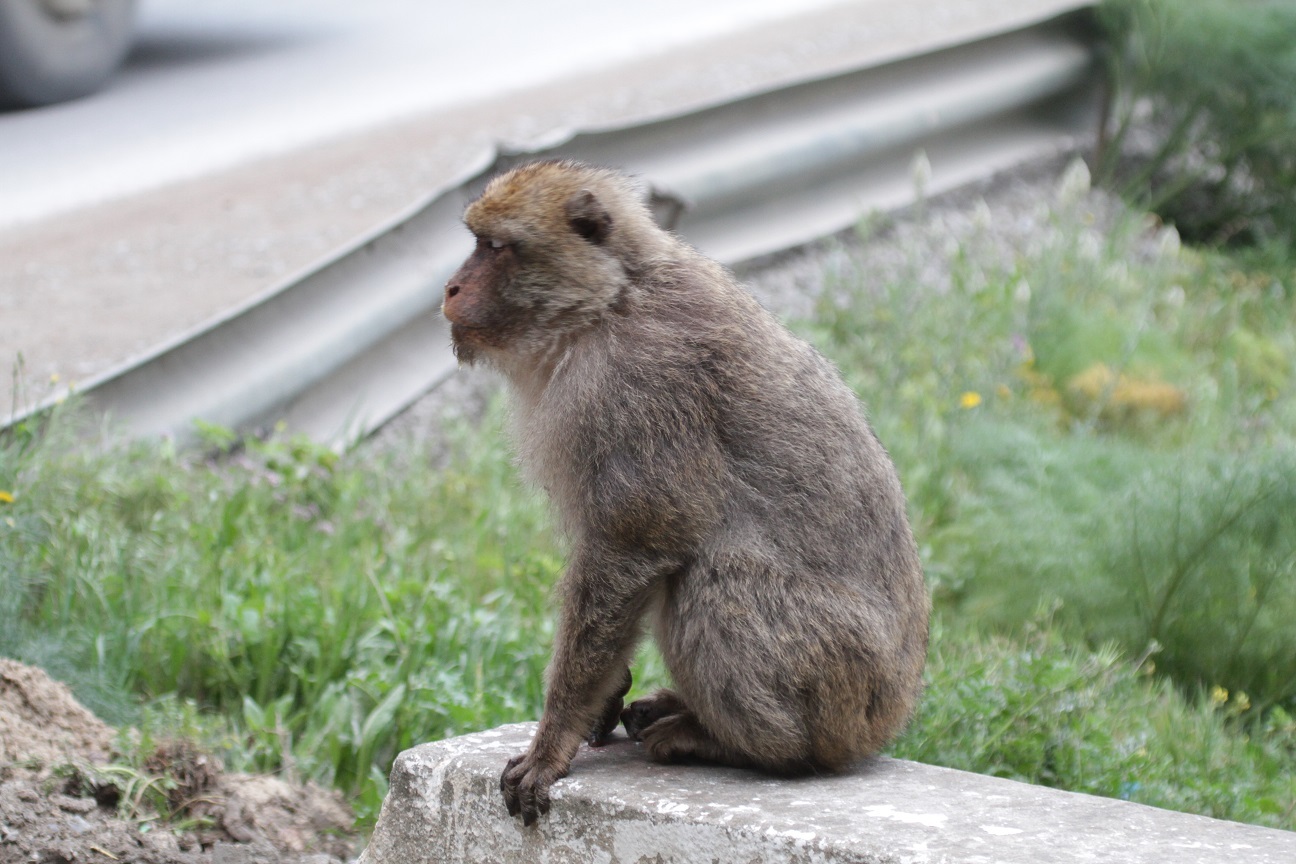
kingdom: Animalia
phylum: Chordata
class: Mammalia
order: Primates
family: Cercopithecidae
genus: Macaca
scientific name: Macaca sylvanus
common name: Barbary macaque
